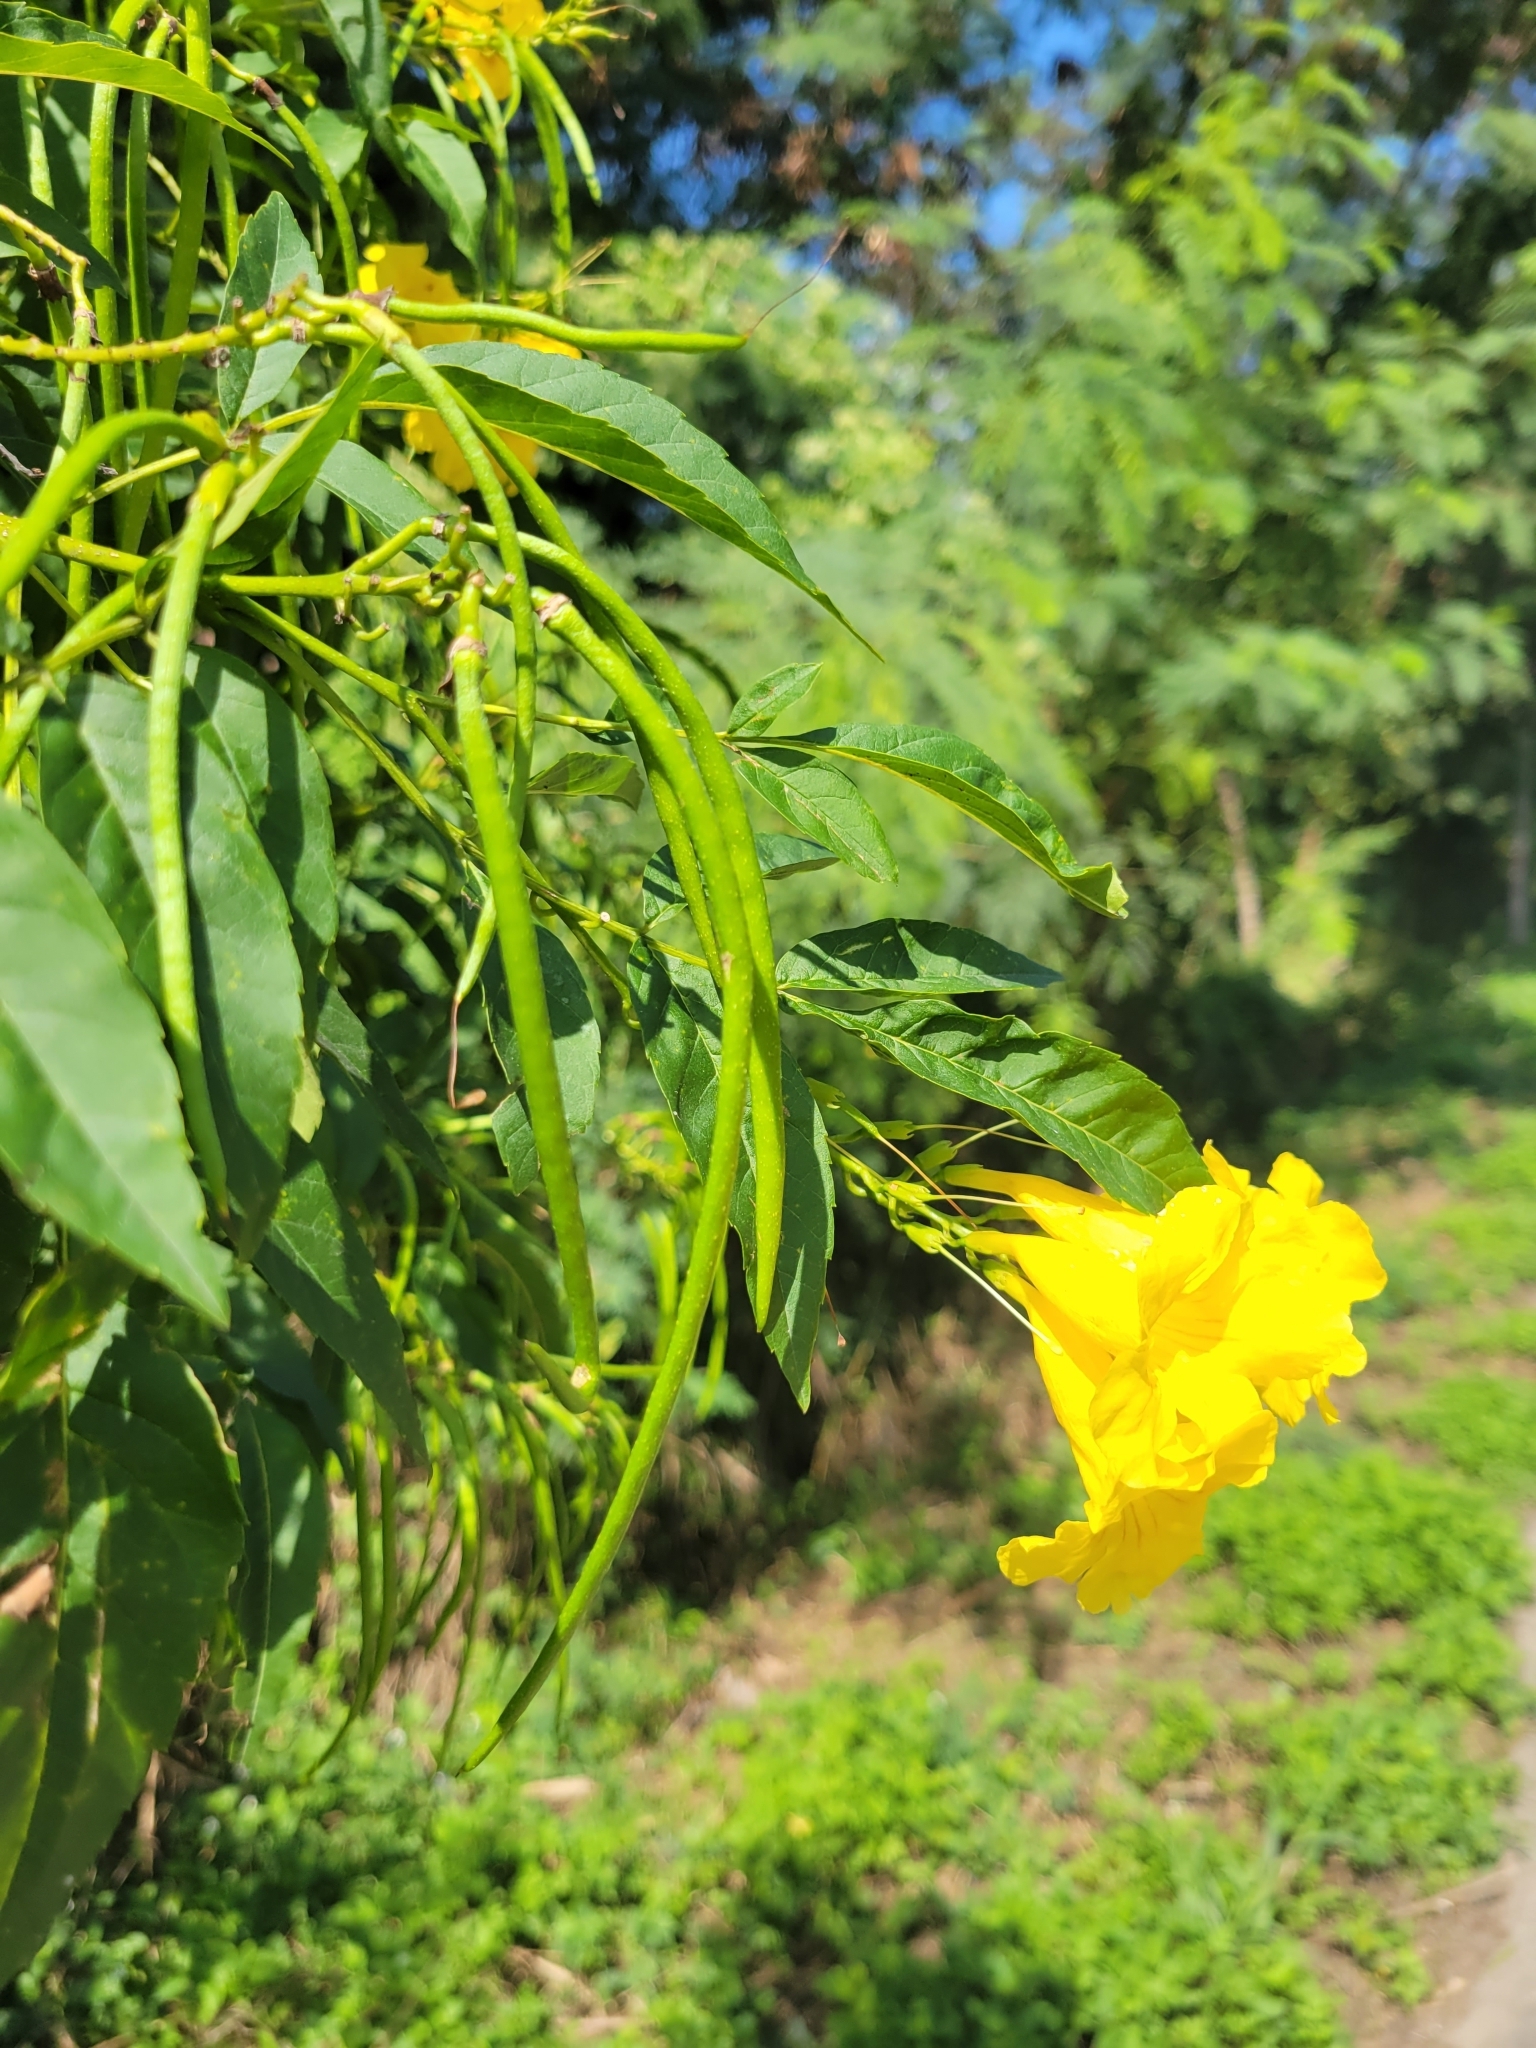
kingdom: Plantae
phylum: Tracheophyta
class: Magnoliopsida
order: Lamiales
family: Bignoniaceae
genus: Tecoma
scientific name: Tecoma stans
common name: Yellow trumpetbush
